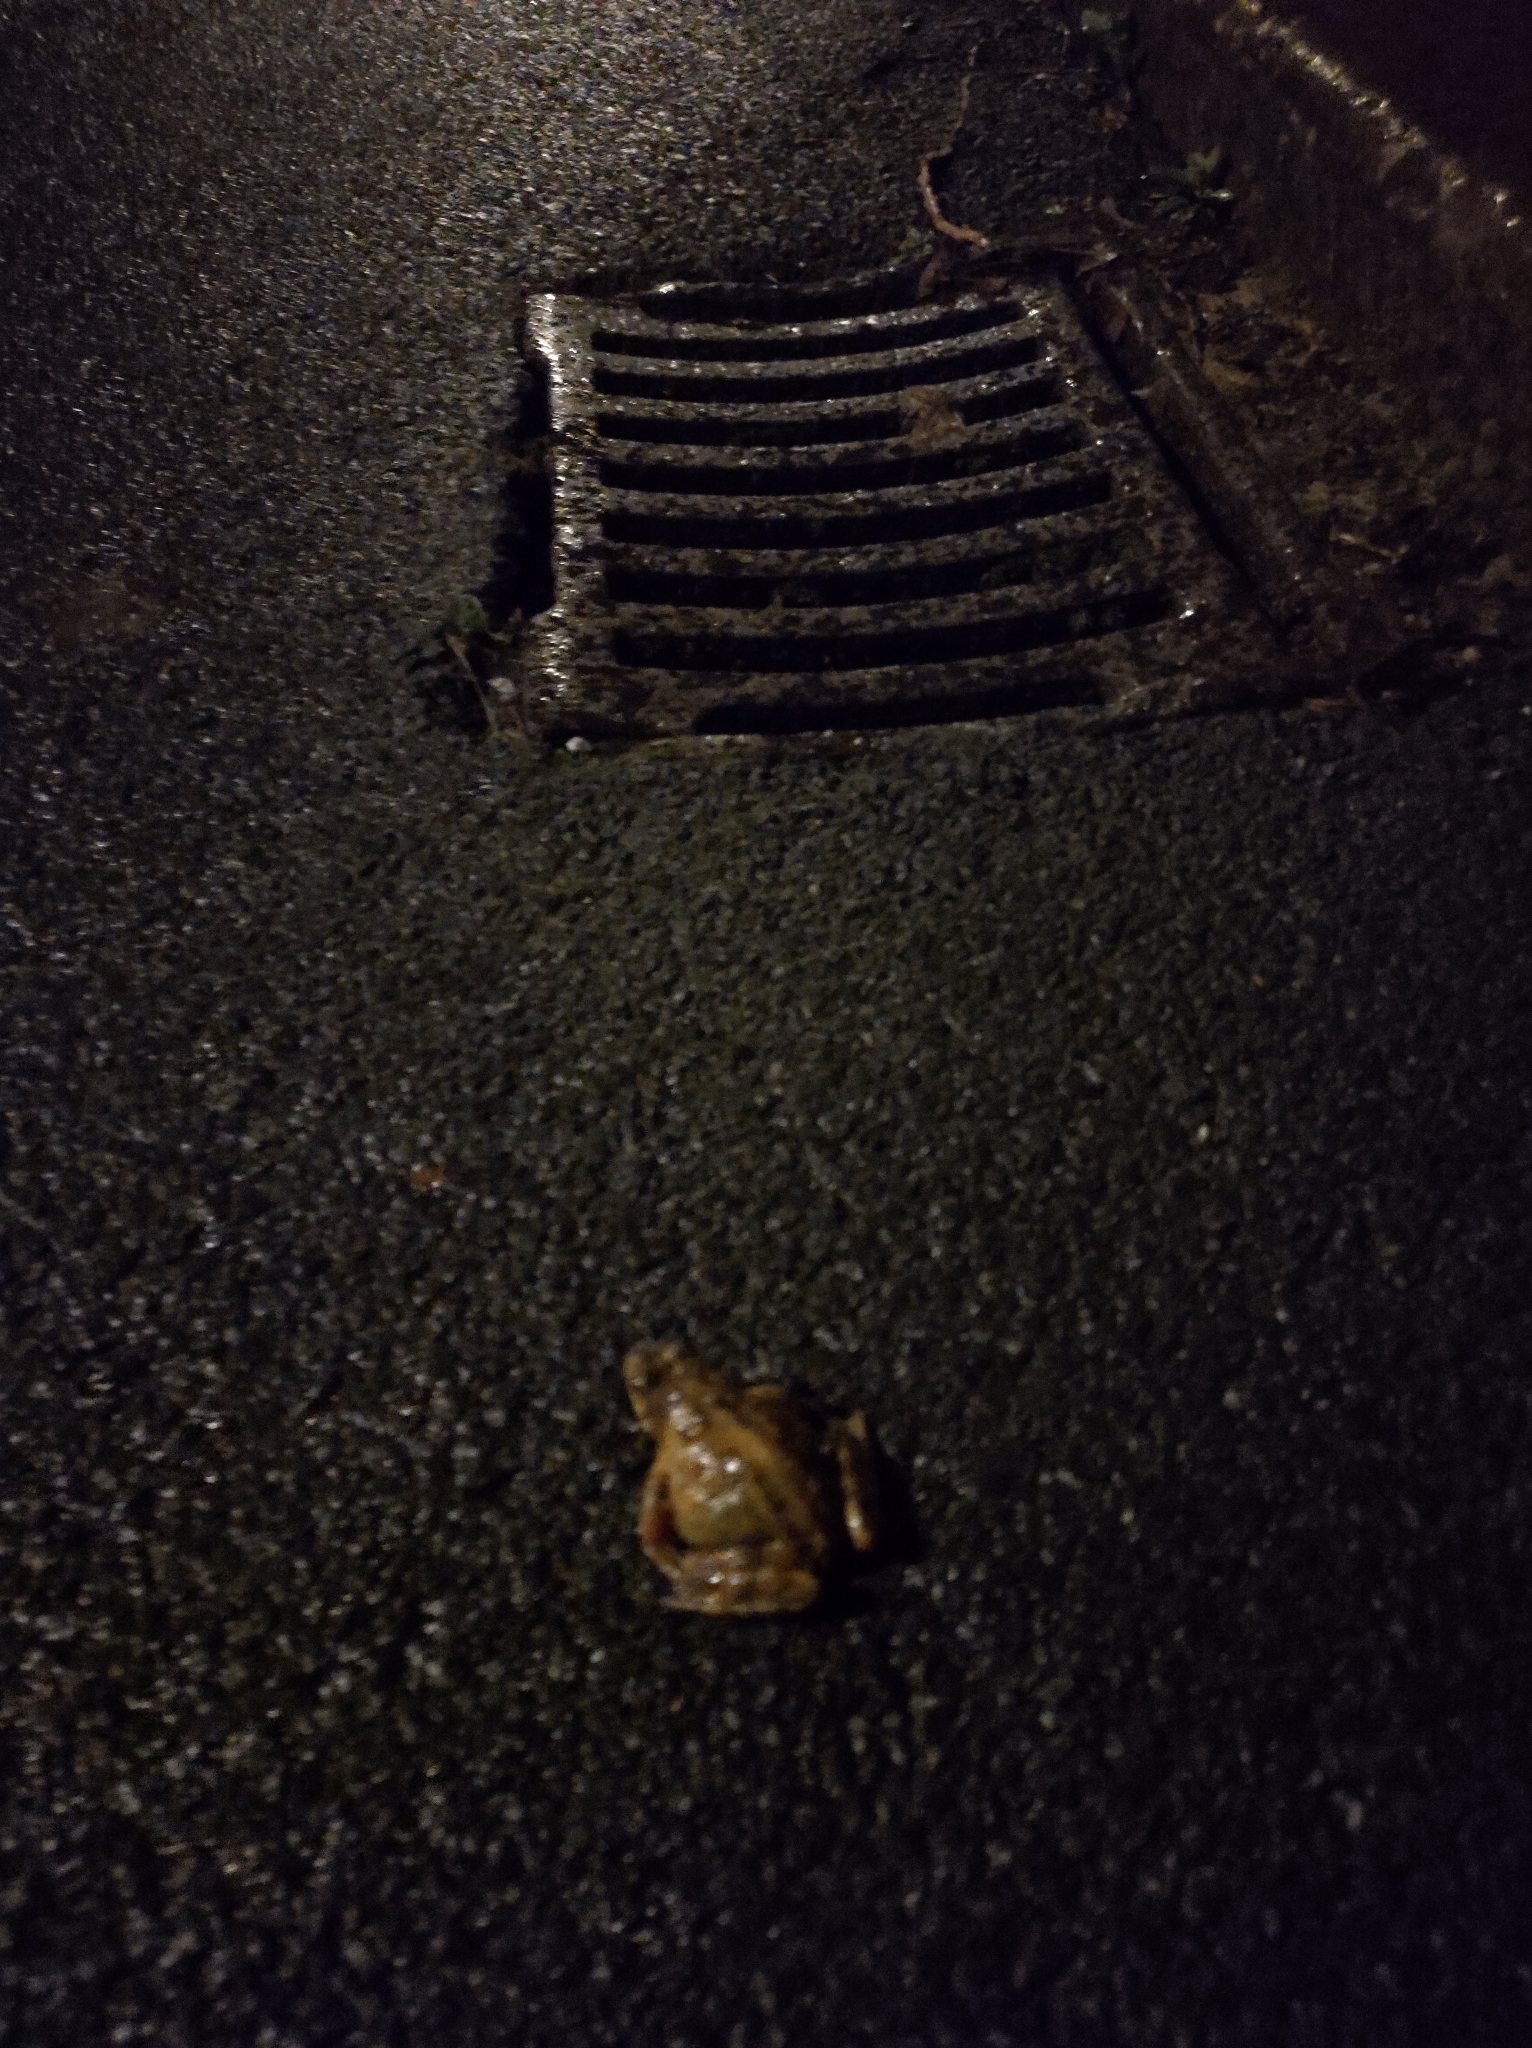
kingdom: Animalia
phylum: Chordata
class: Amphibia
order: Anura
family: Ranidae
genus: Rana
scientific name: Rana temporaria
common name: Common frog
